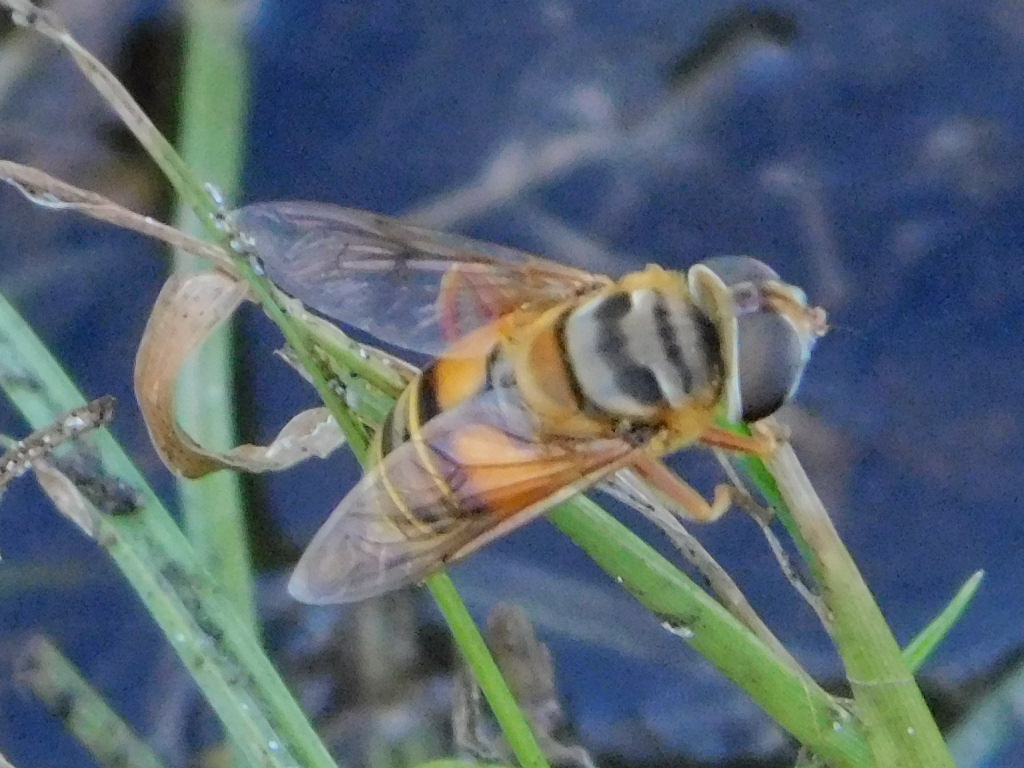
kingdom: Animalia
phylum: Arthropoda
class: Insecta
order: Diptera
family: Syrphidae
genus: Palpada
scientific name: Palpada vinetorum
